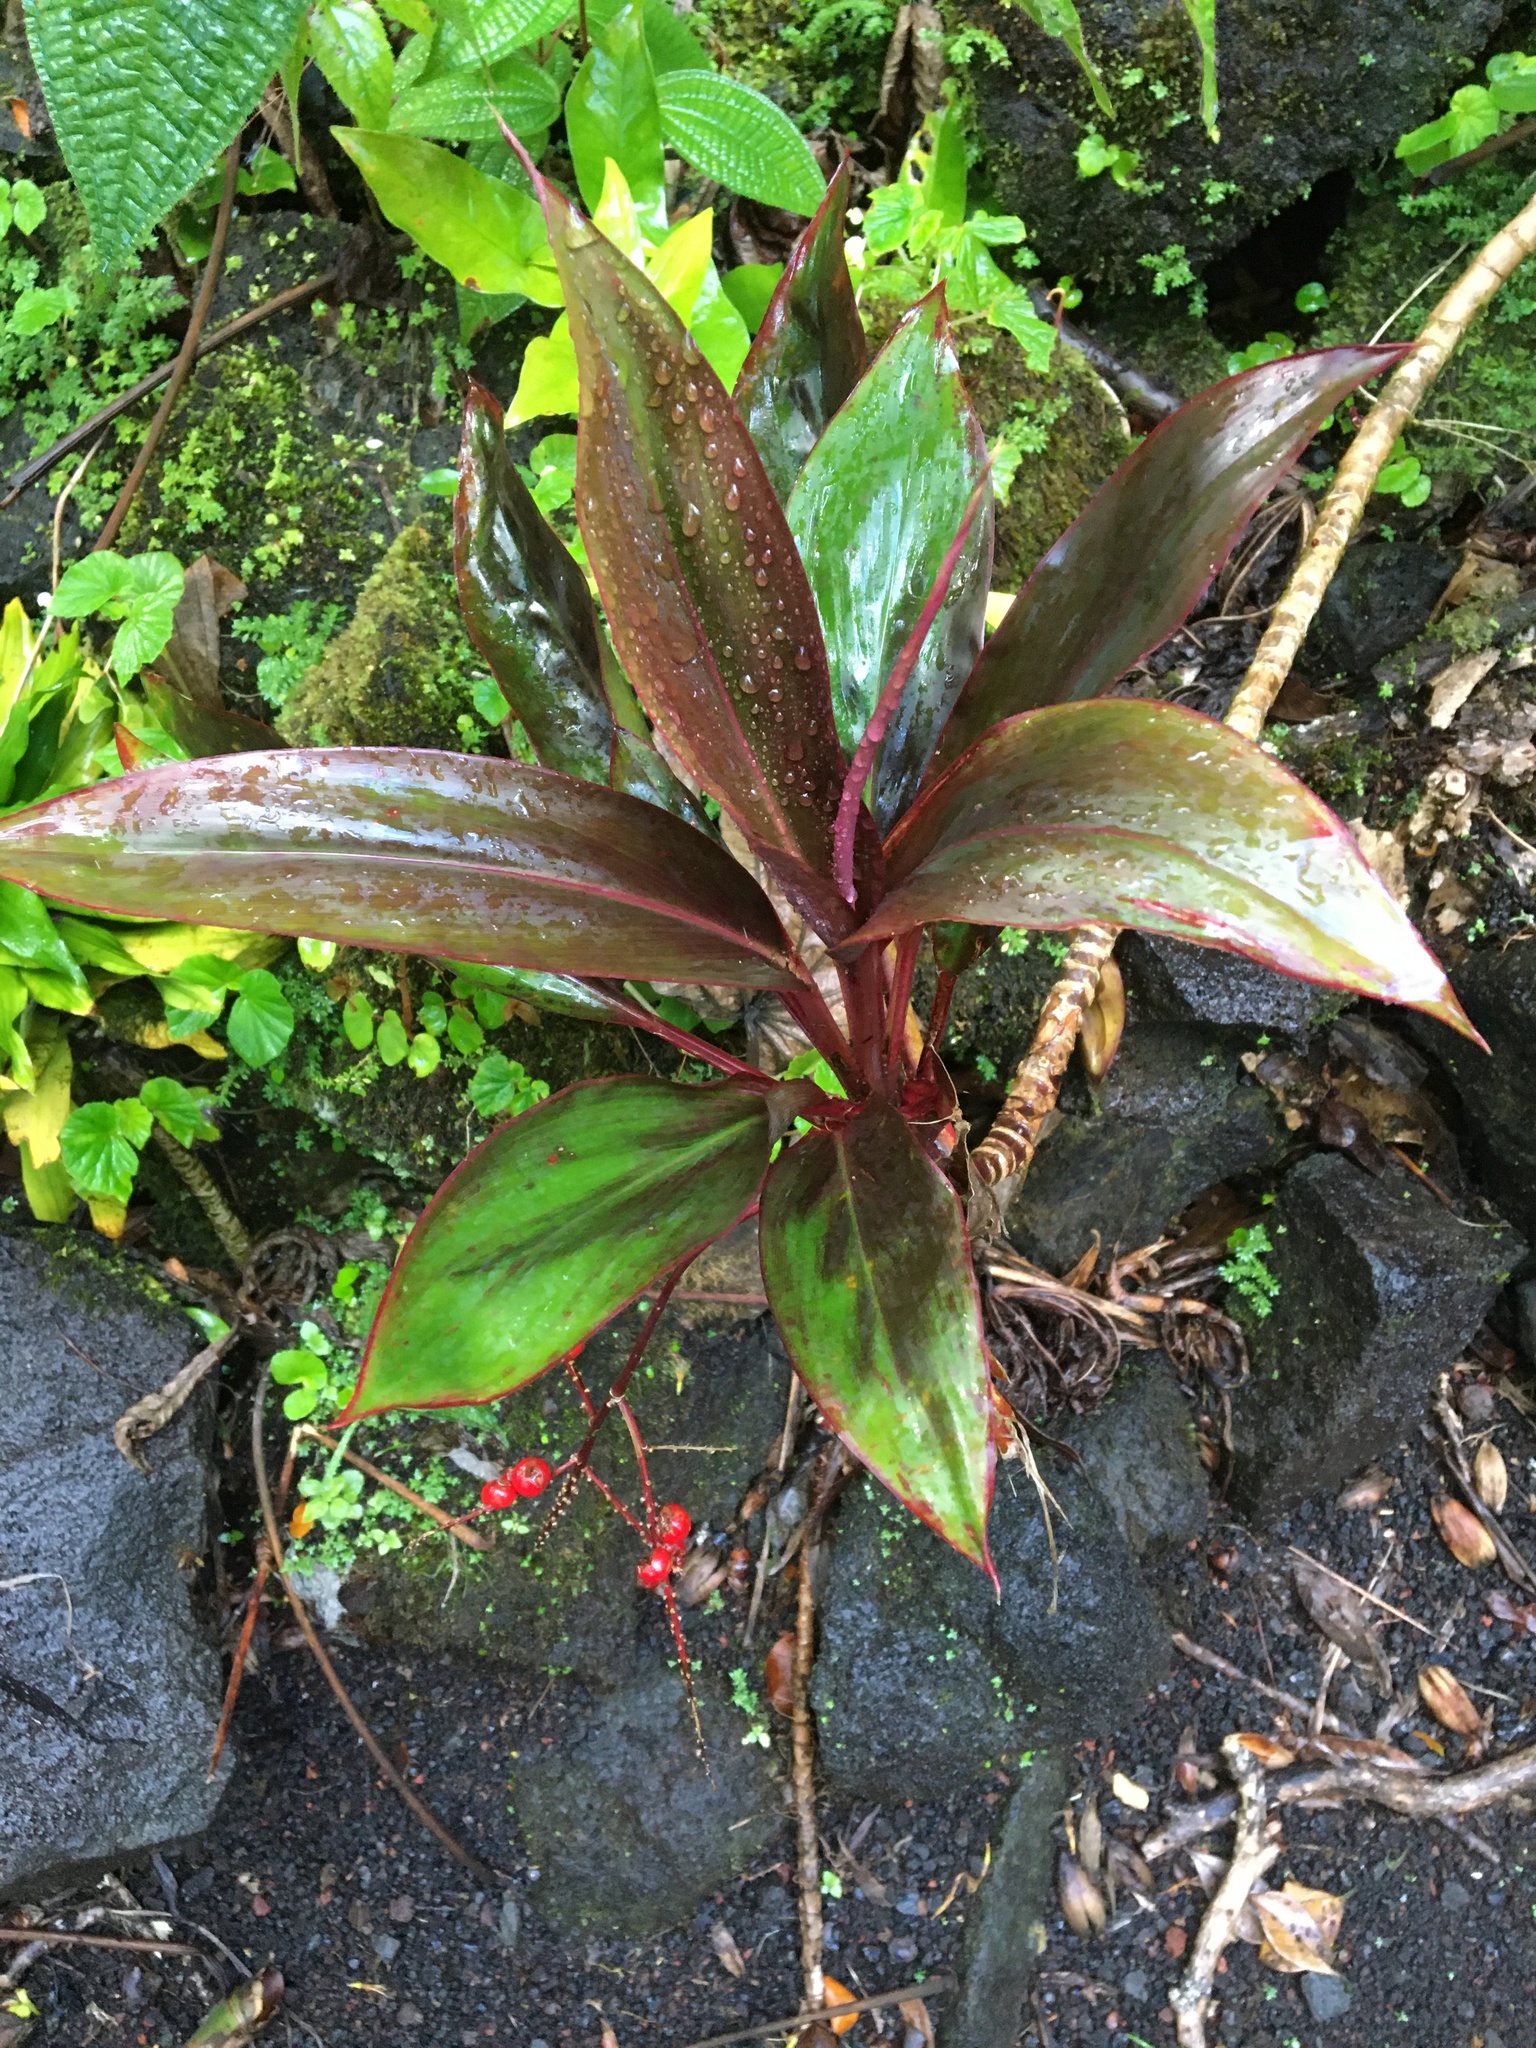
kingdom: Plantae
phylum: Tracheophyta
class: Liliopsida
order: Asparagales
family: Asparagaceae
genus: Cordyline
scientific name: Cordyline fruticosa
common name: Good-luck-plant
